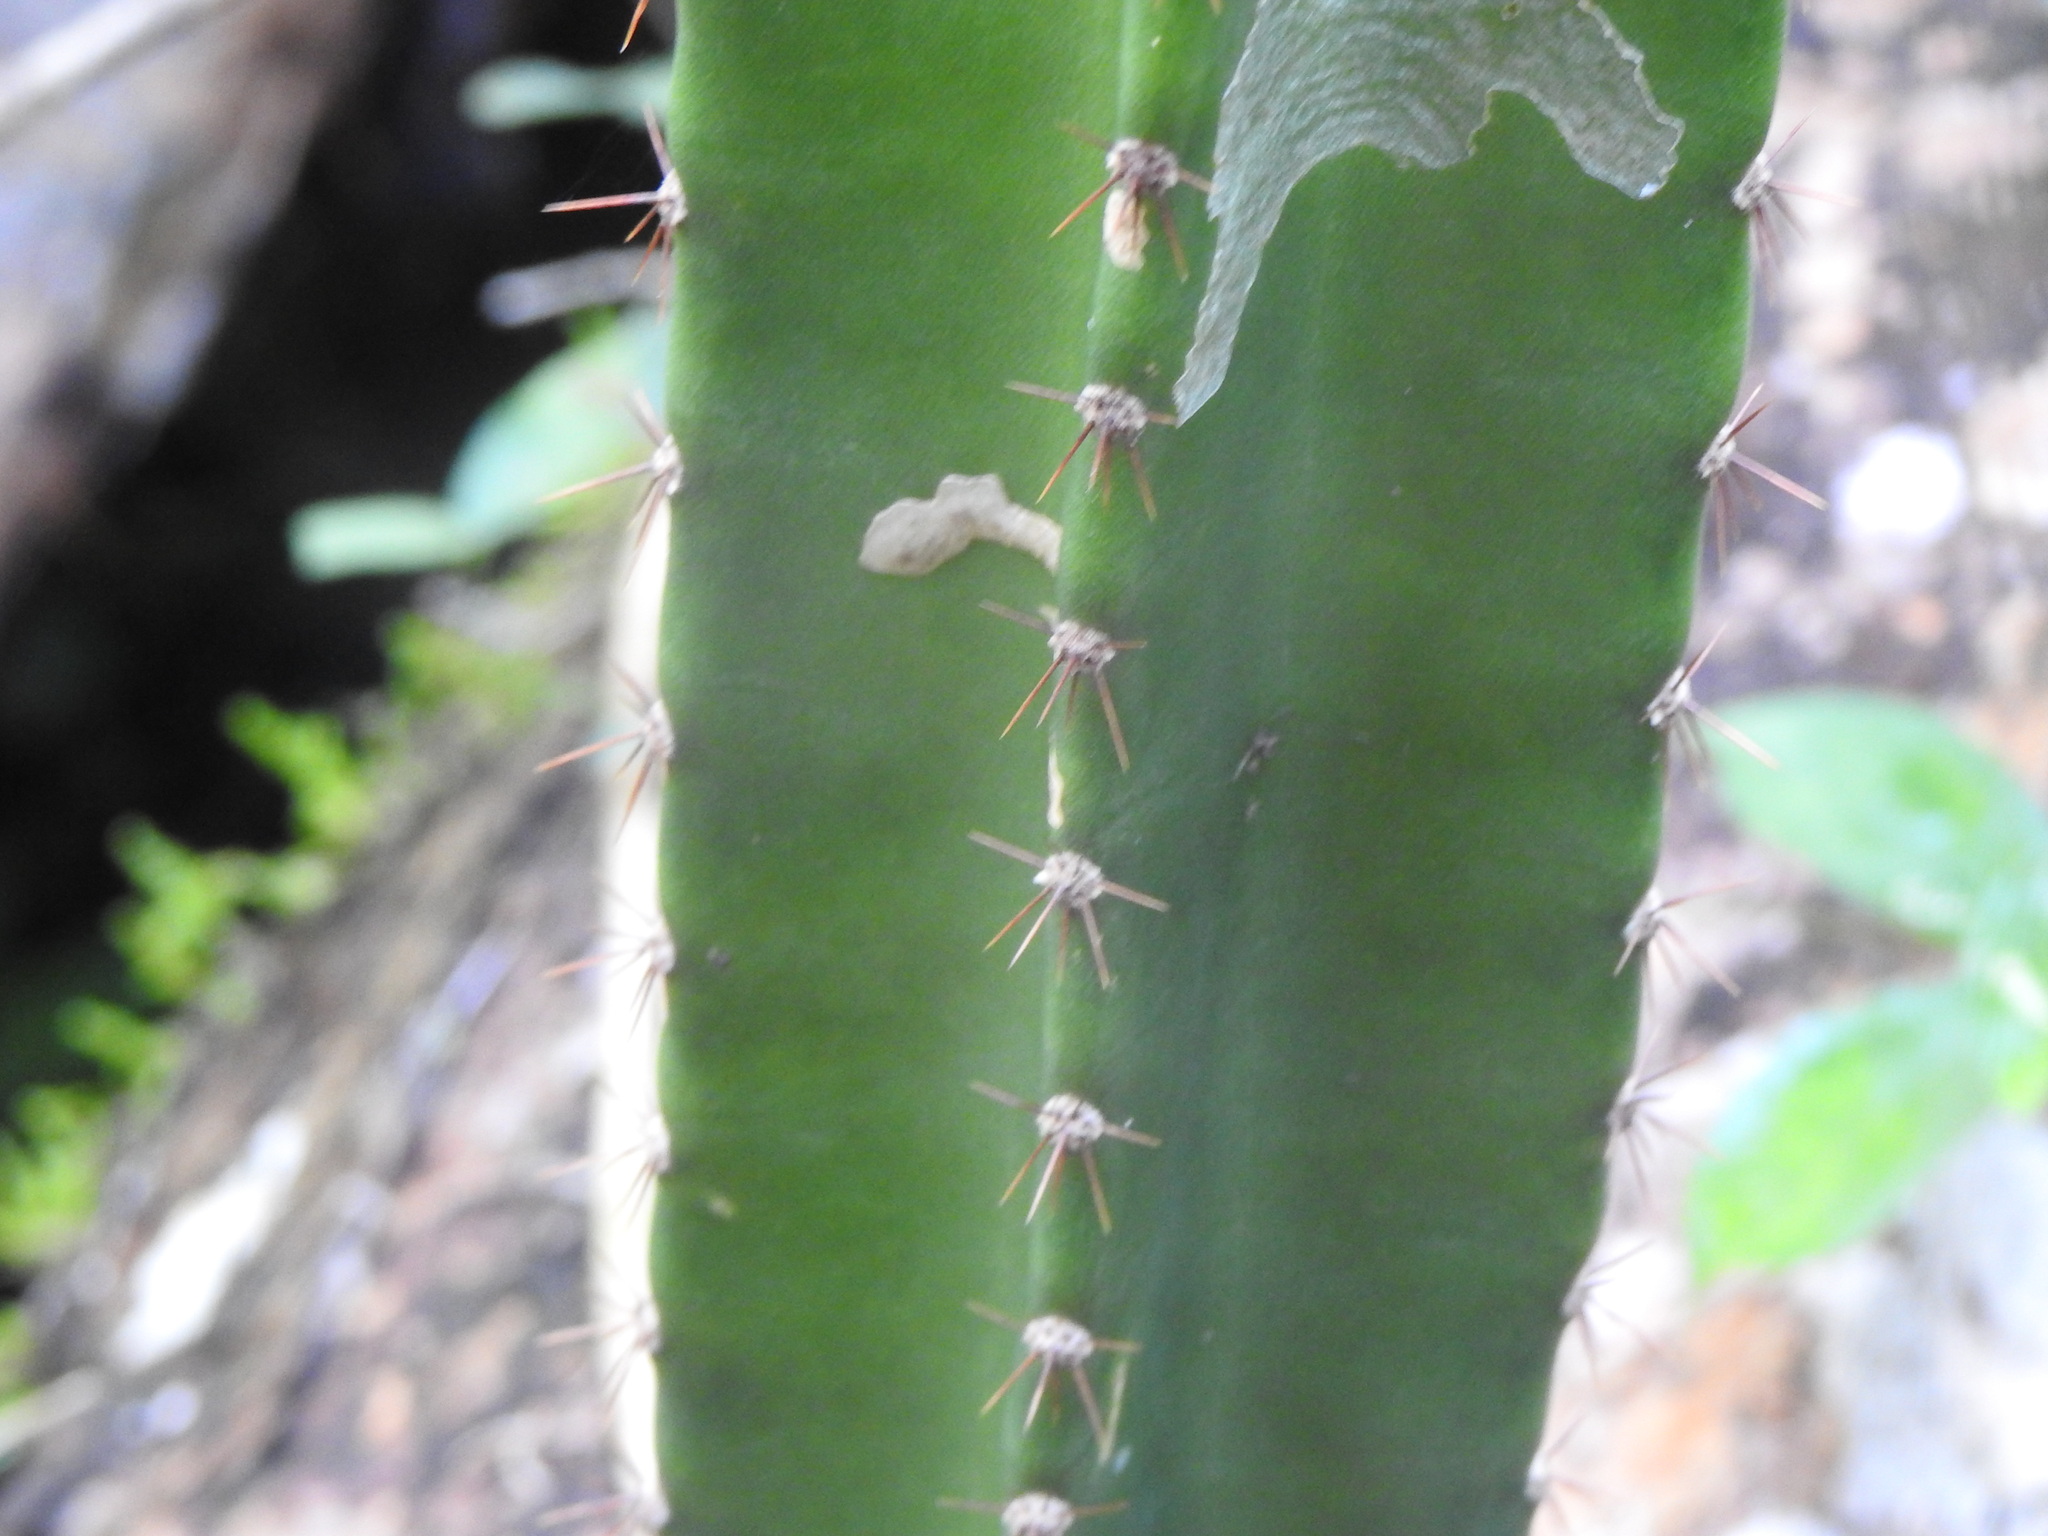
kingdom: Plantae
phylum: Tracheophyta
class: Magnoliopsida
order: Caryophyllales
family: Cactaceae
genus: Cereus
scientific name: Cereus hildmannianus
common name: Hedge cactus
